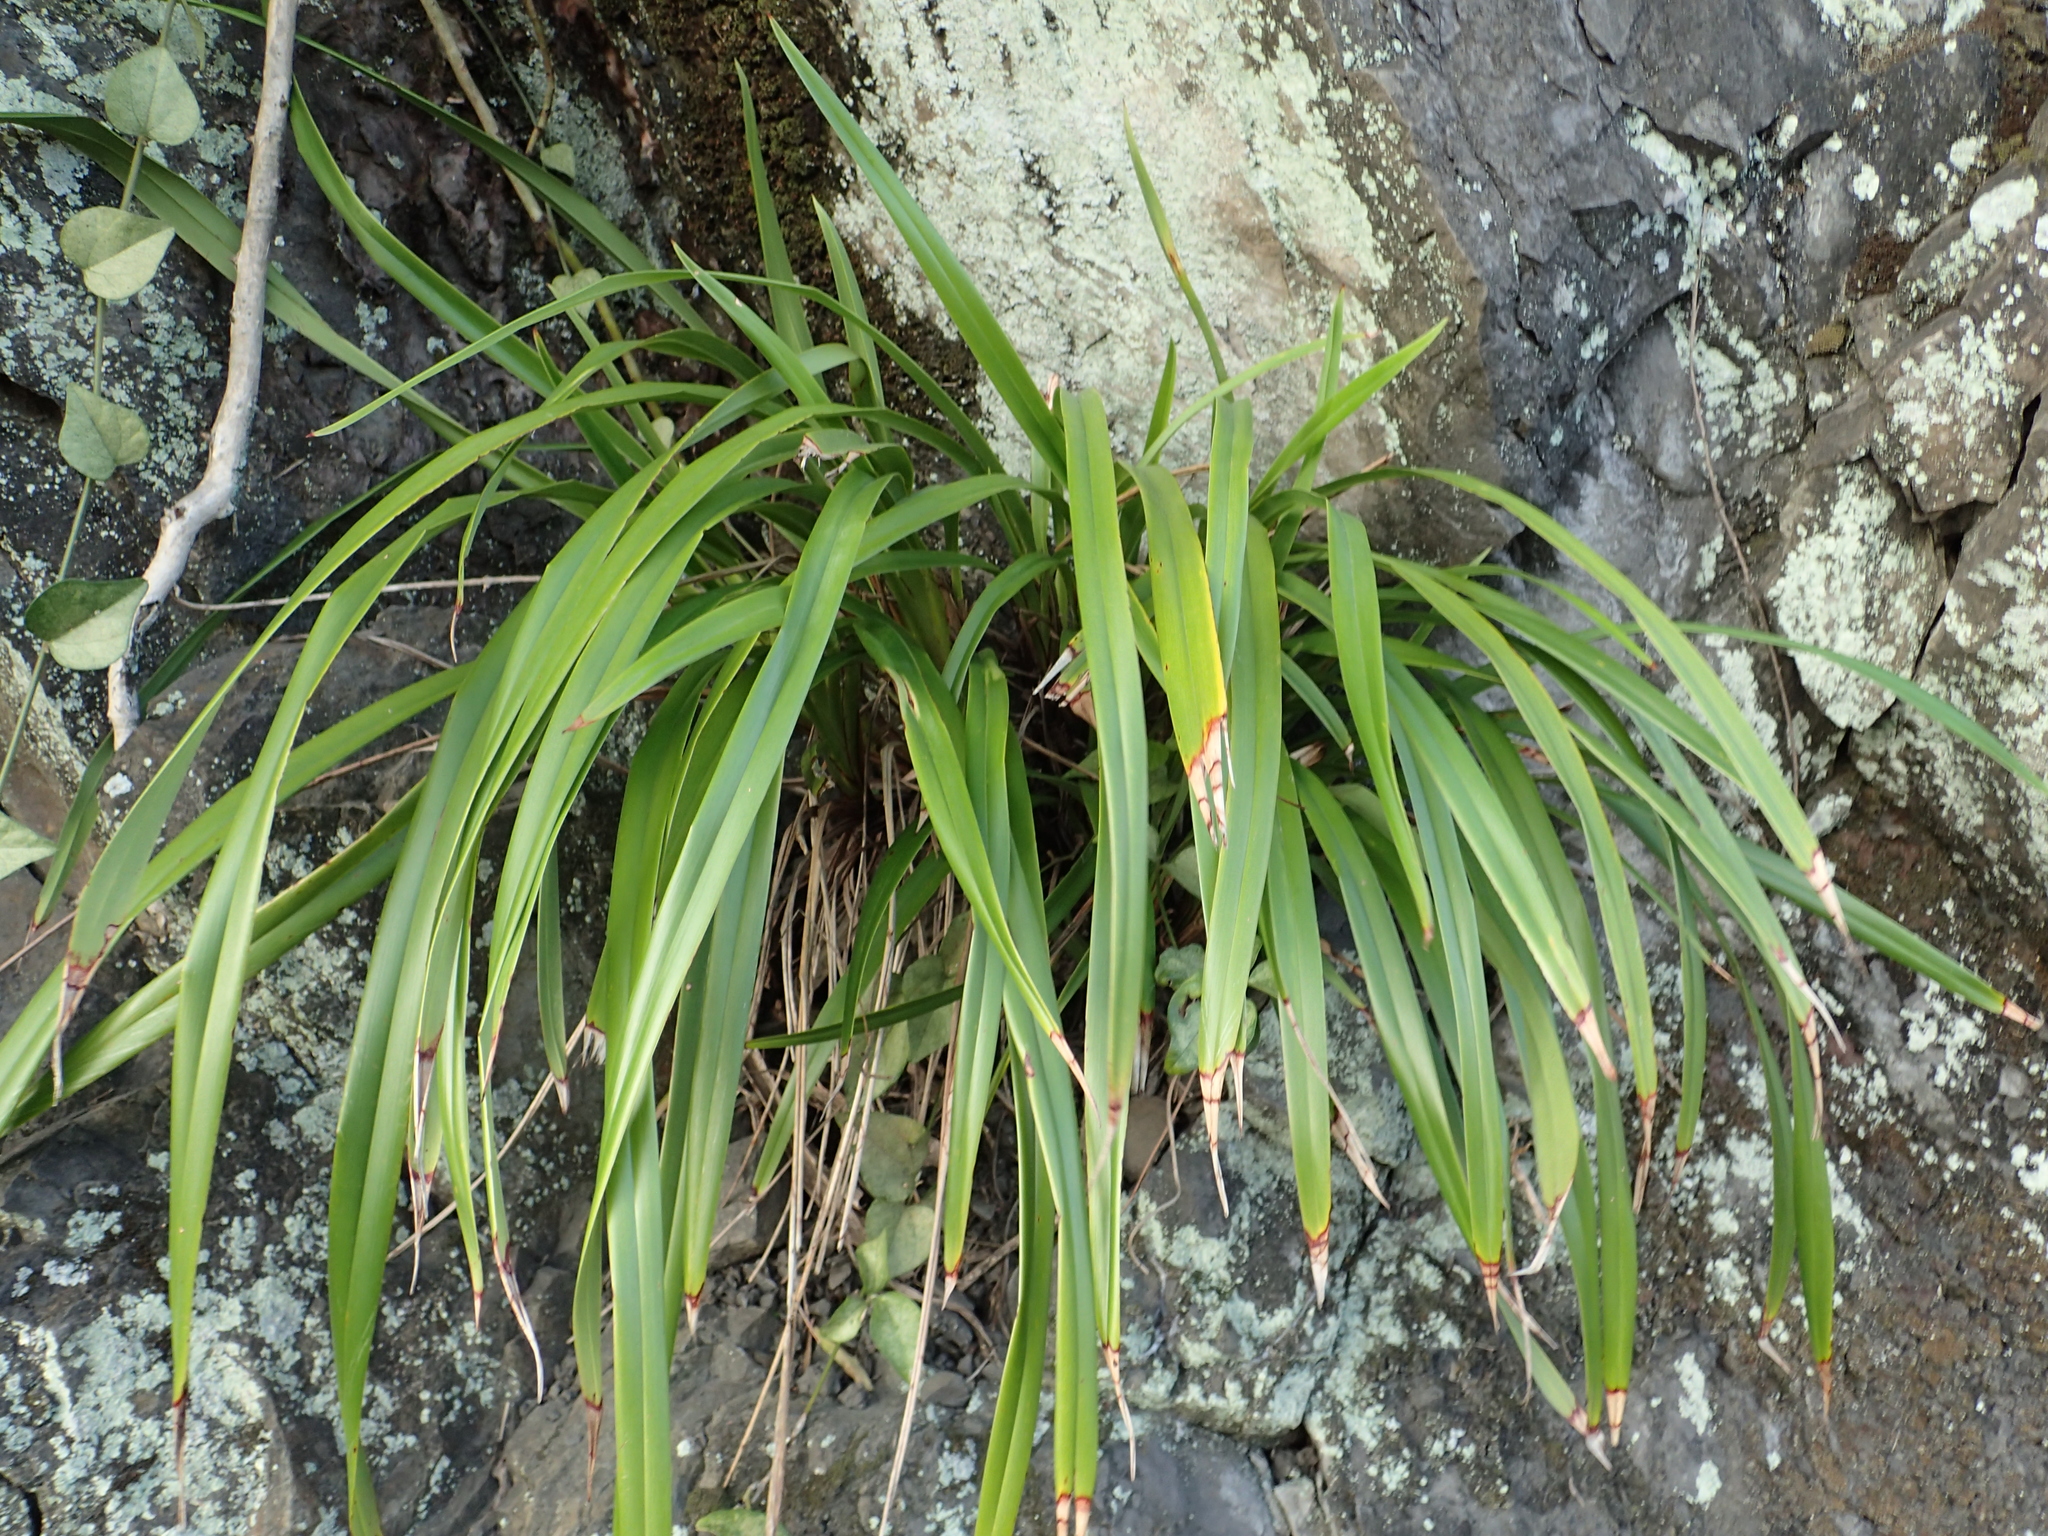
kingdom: Plantae
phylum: Tracheophyta
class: Liliopsida
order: Asparagales
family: Asphodelaceae
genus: Dianella
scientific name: Dianella ensifolia
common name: New zealand lilyplant
